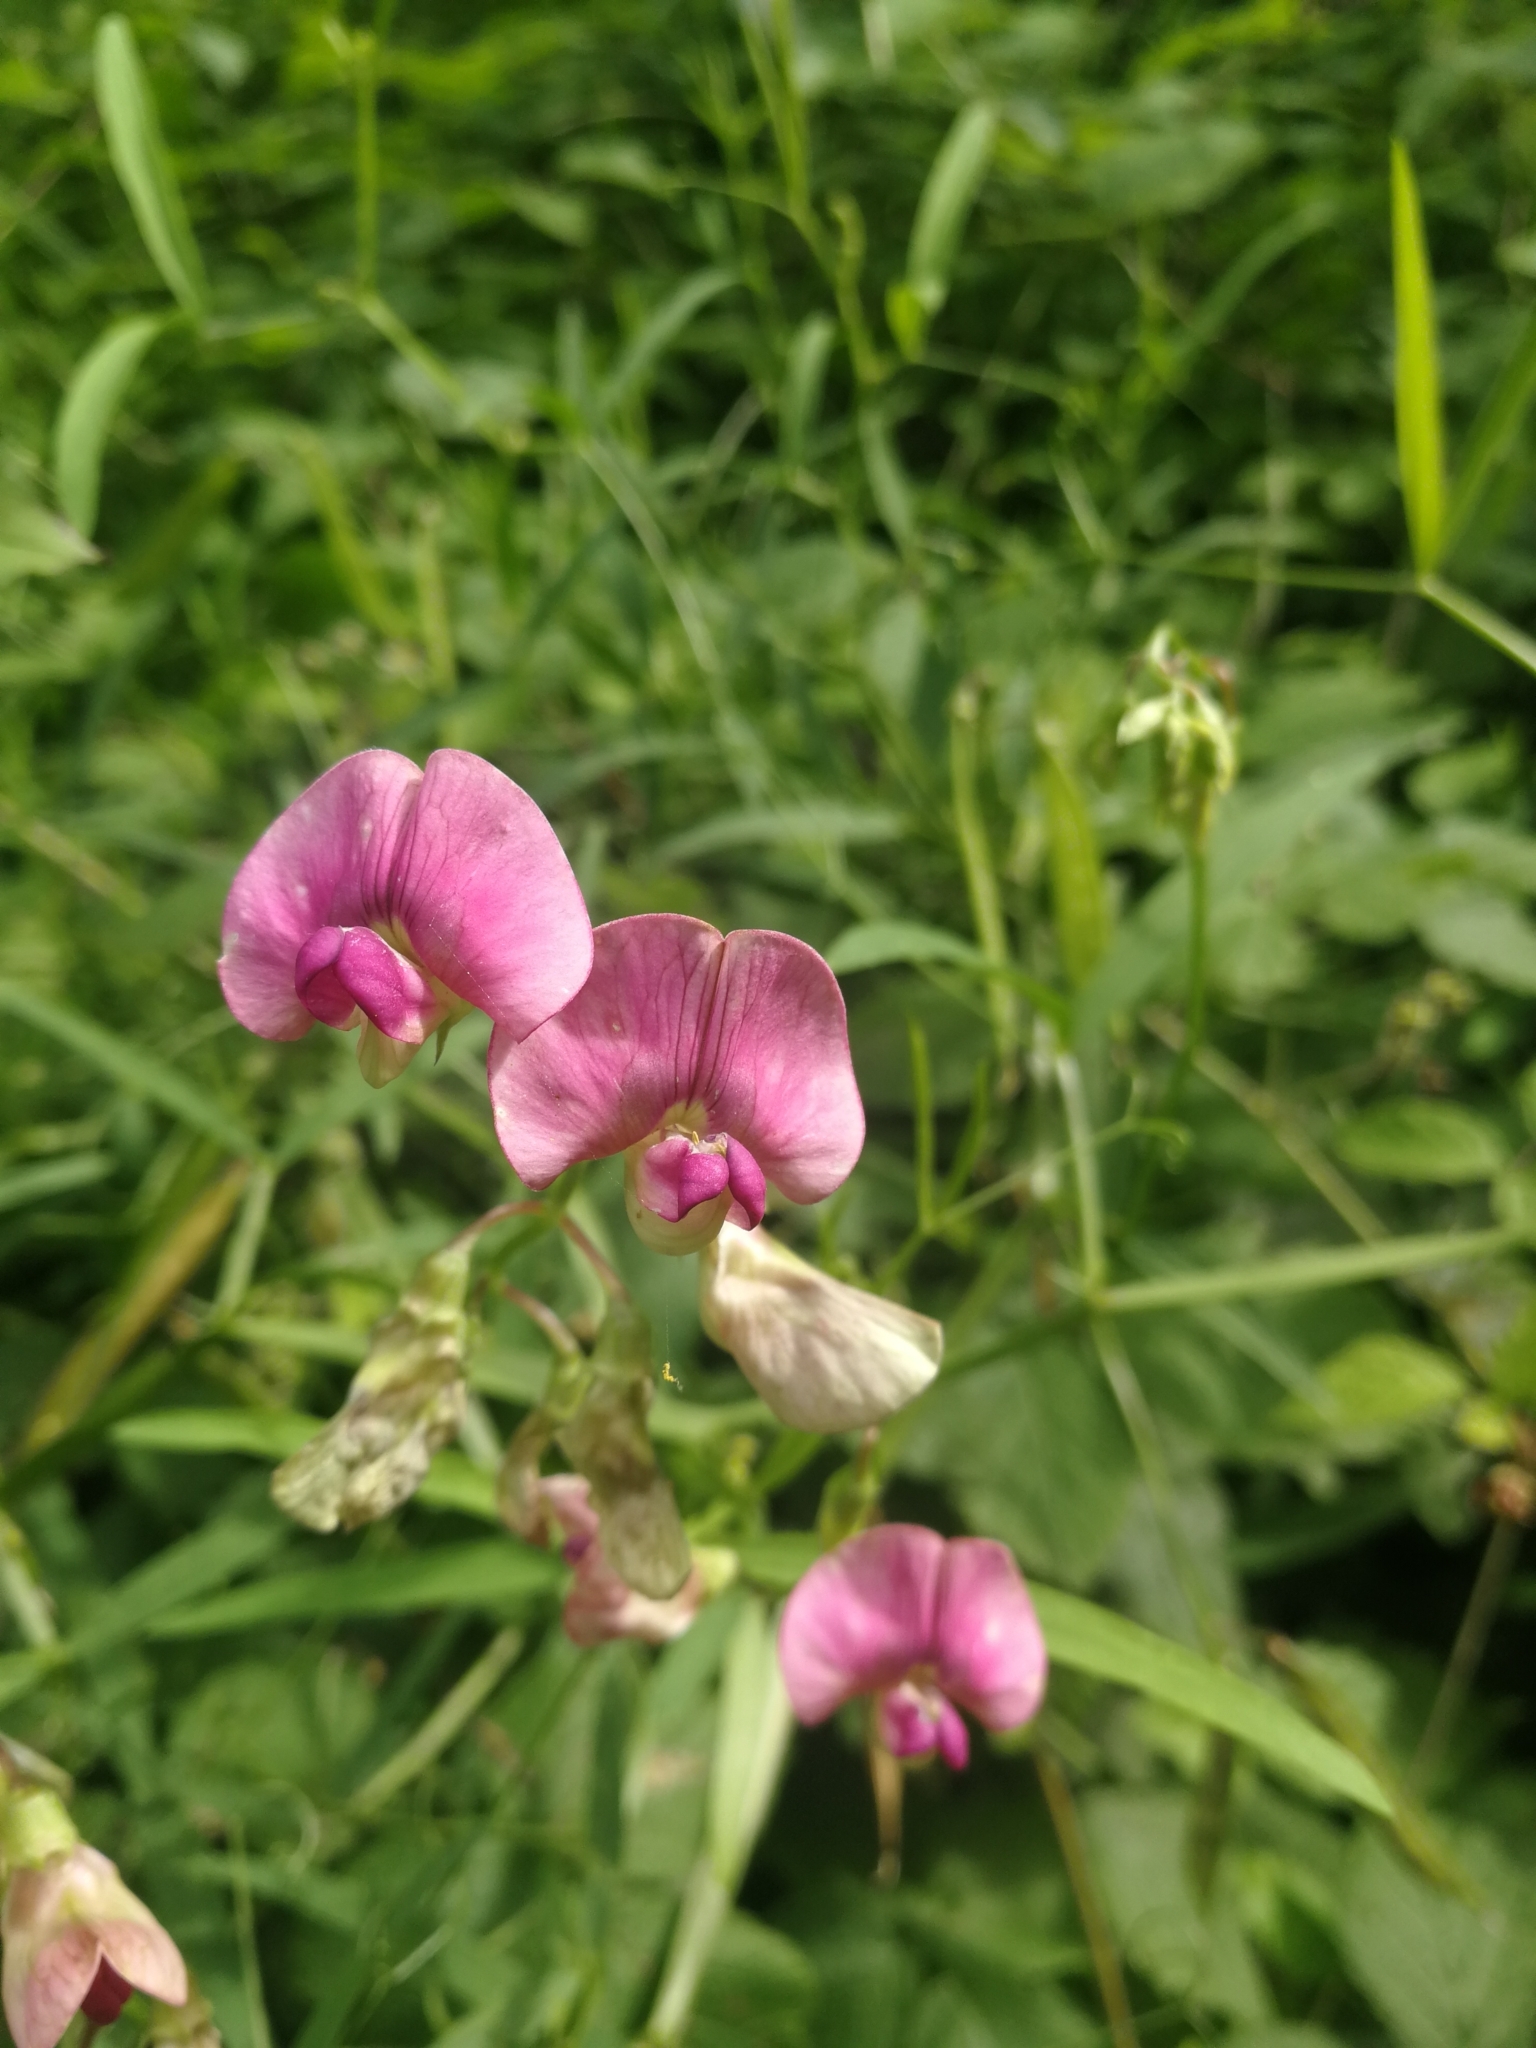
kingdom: Plantae
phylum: Tracheophyta
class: Magnoliopsida
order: Fabales
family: Fabaceae
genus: Lathyrus
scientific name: Lathyrus sylvestris
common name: Flat pea
